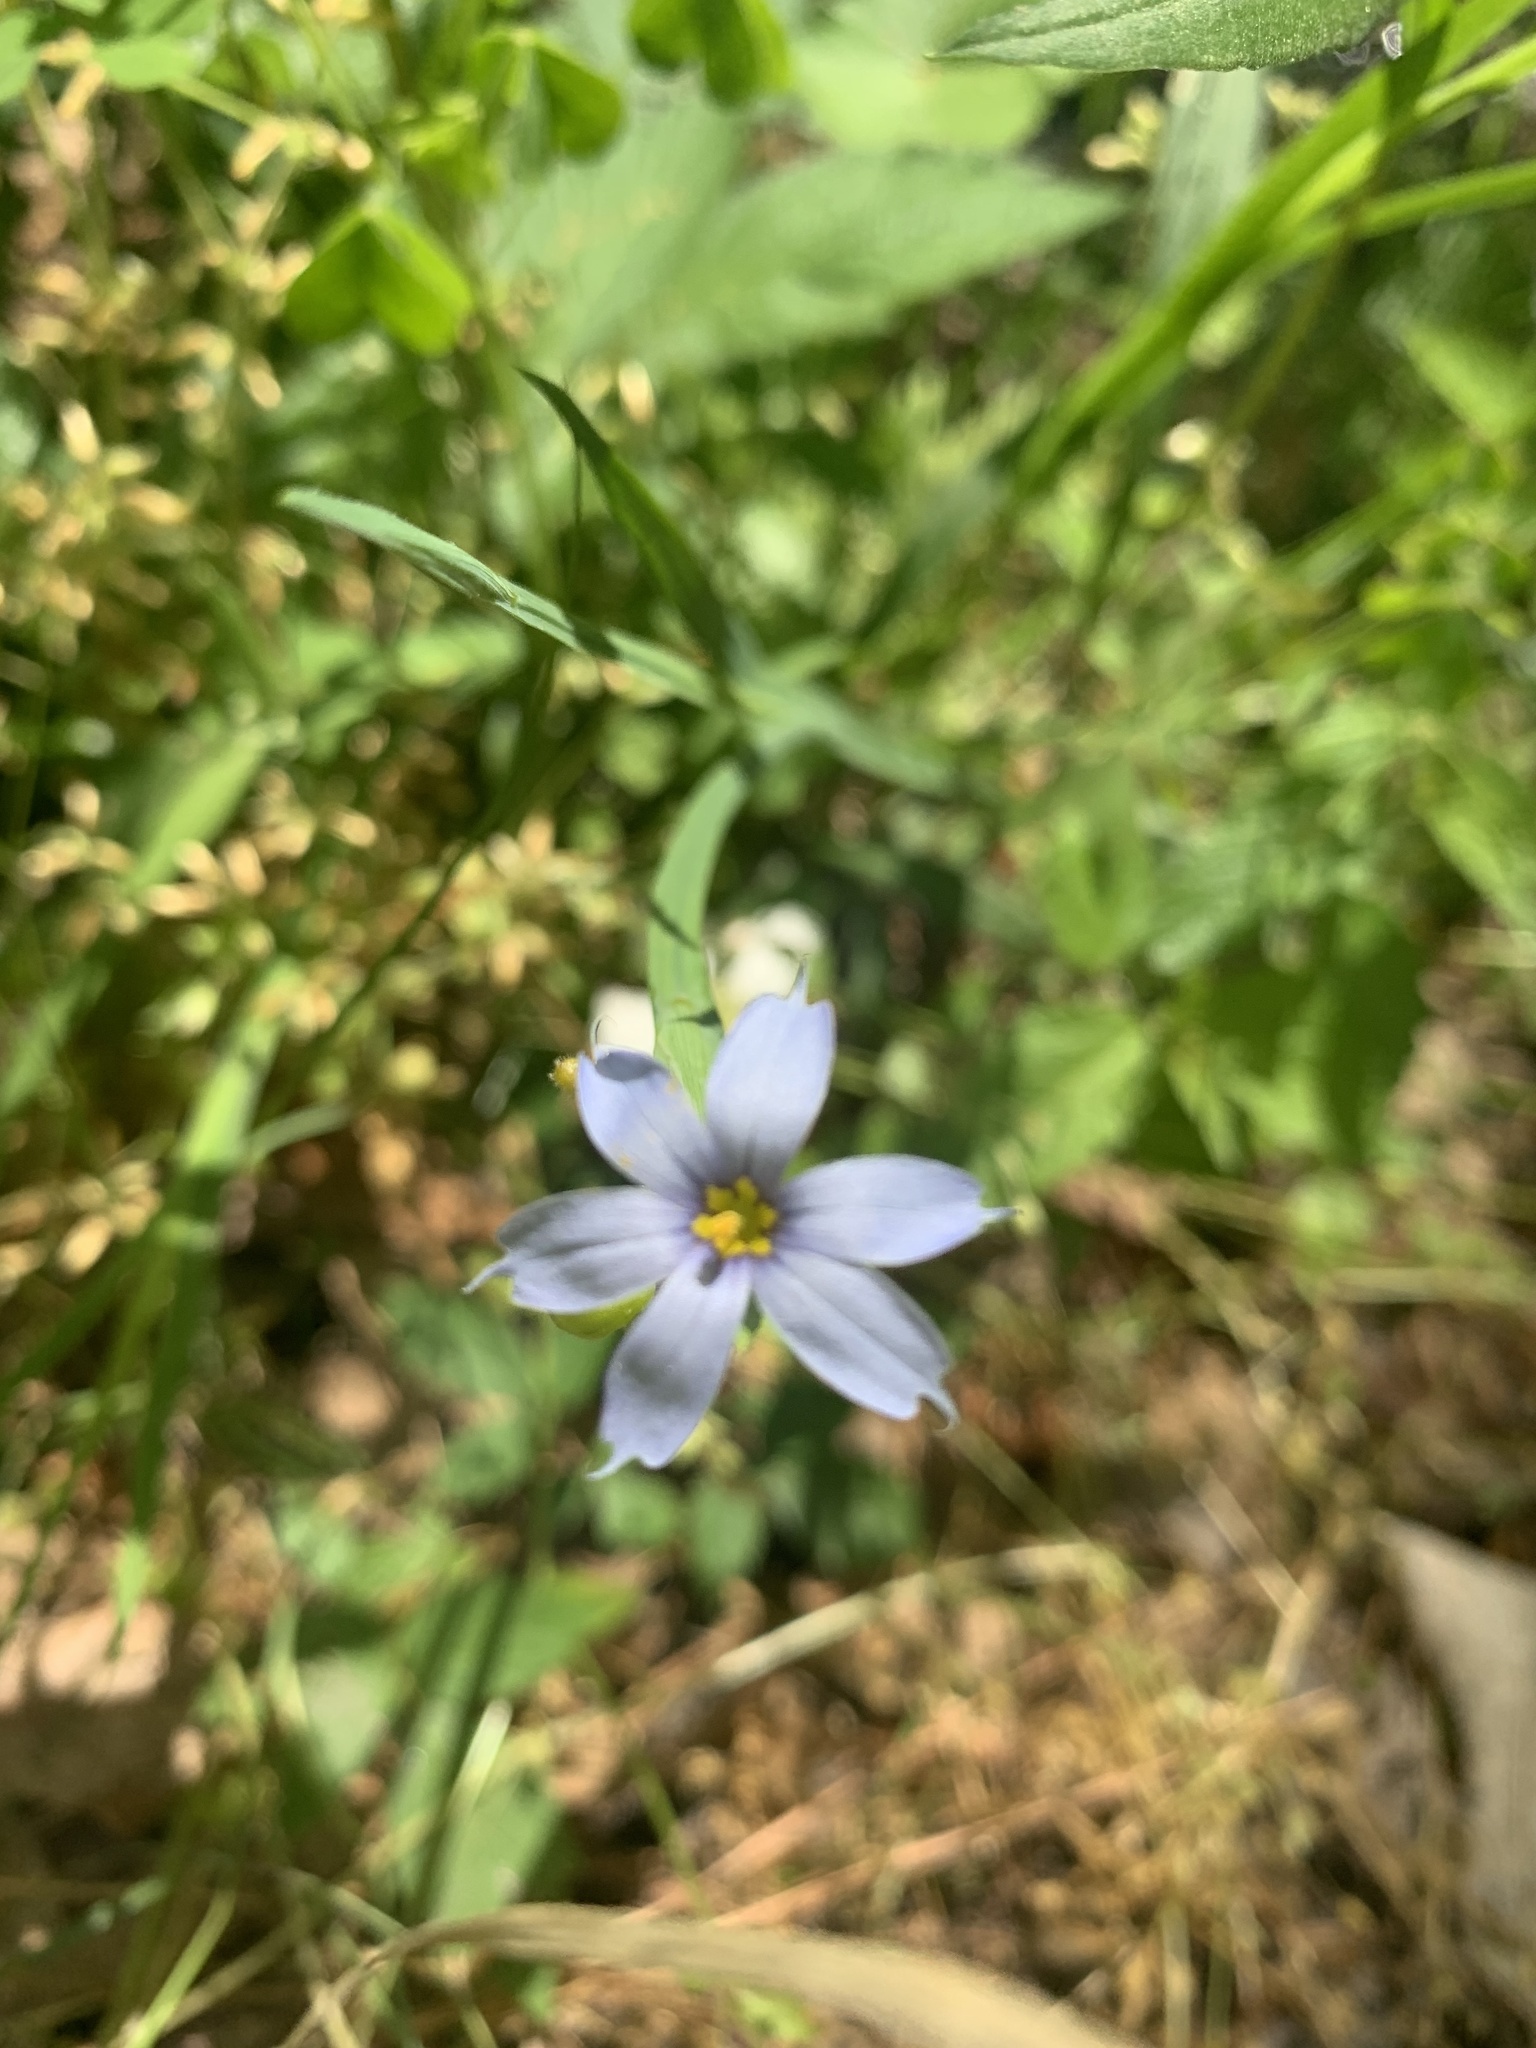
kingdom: Plantae
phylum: Tracheophyta
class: Liliopsida
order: Asparagales
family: Iridaceae
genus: Sisyrinchium
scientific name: Sisyrinchium atlanticum
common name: Eastern blue-eyed-grass
